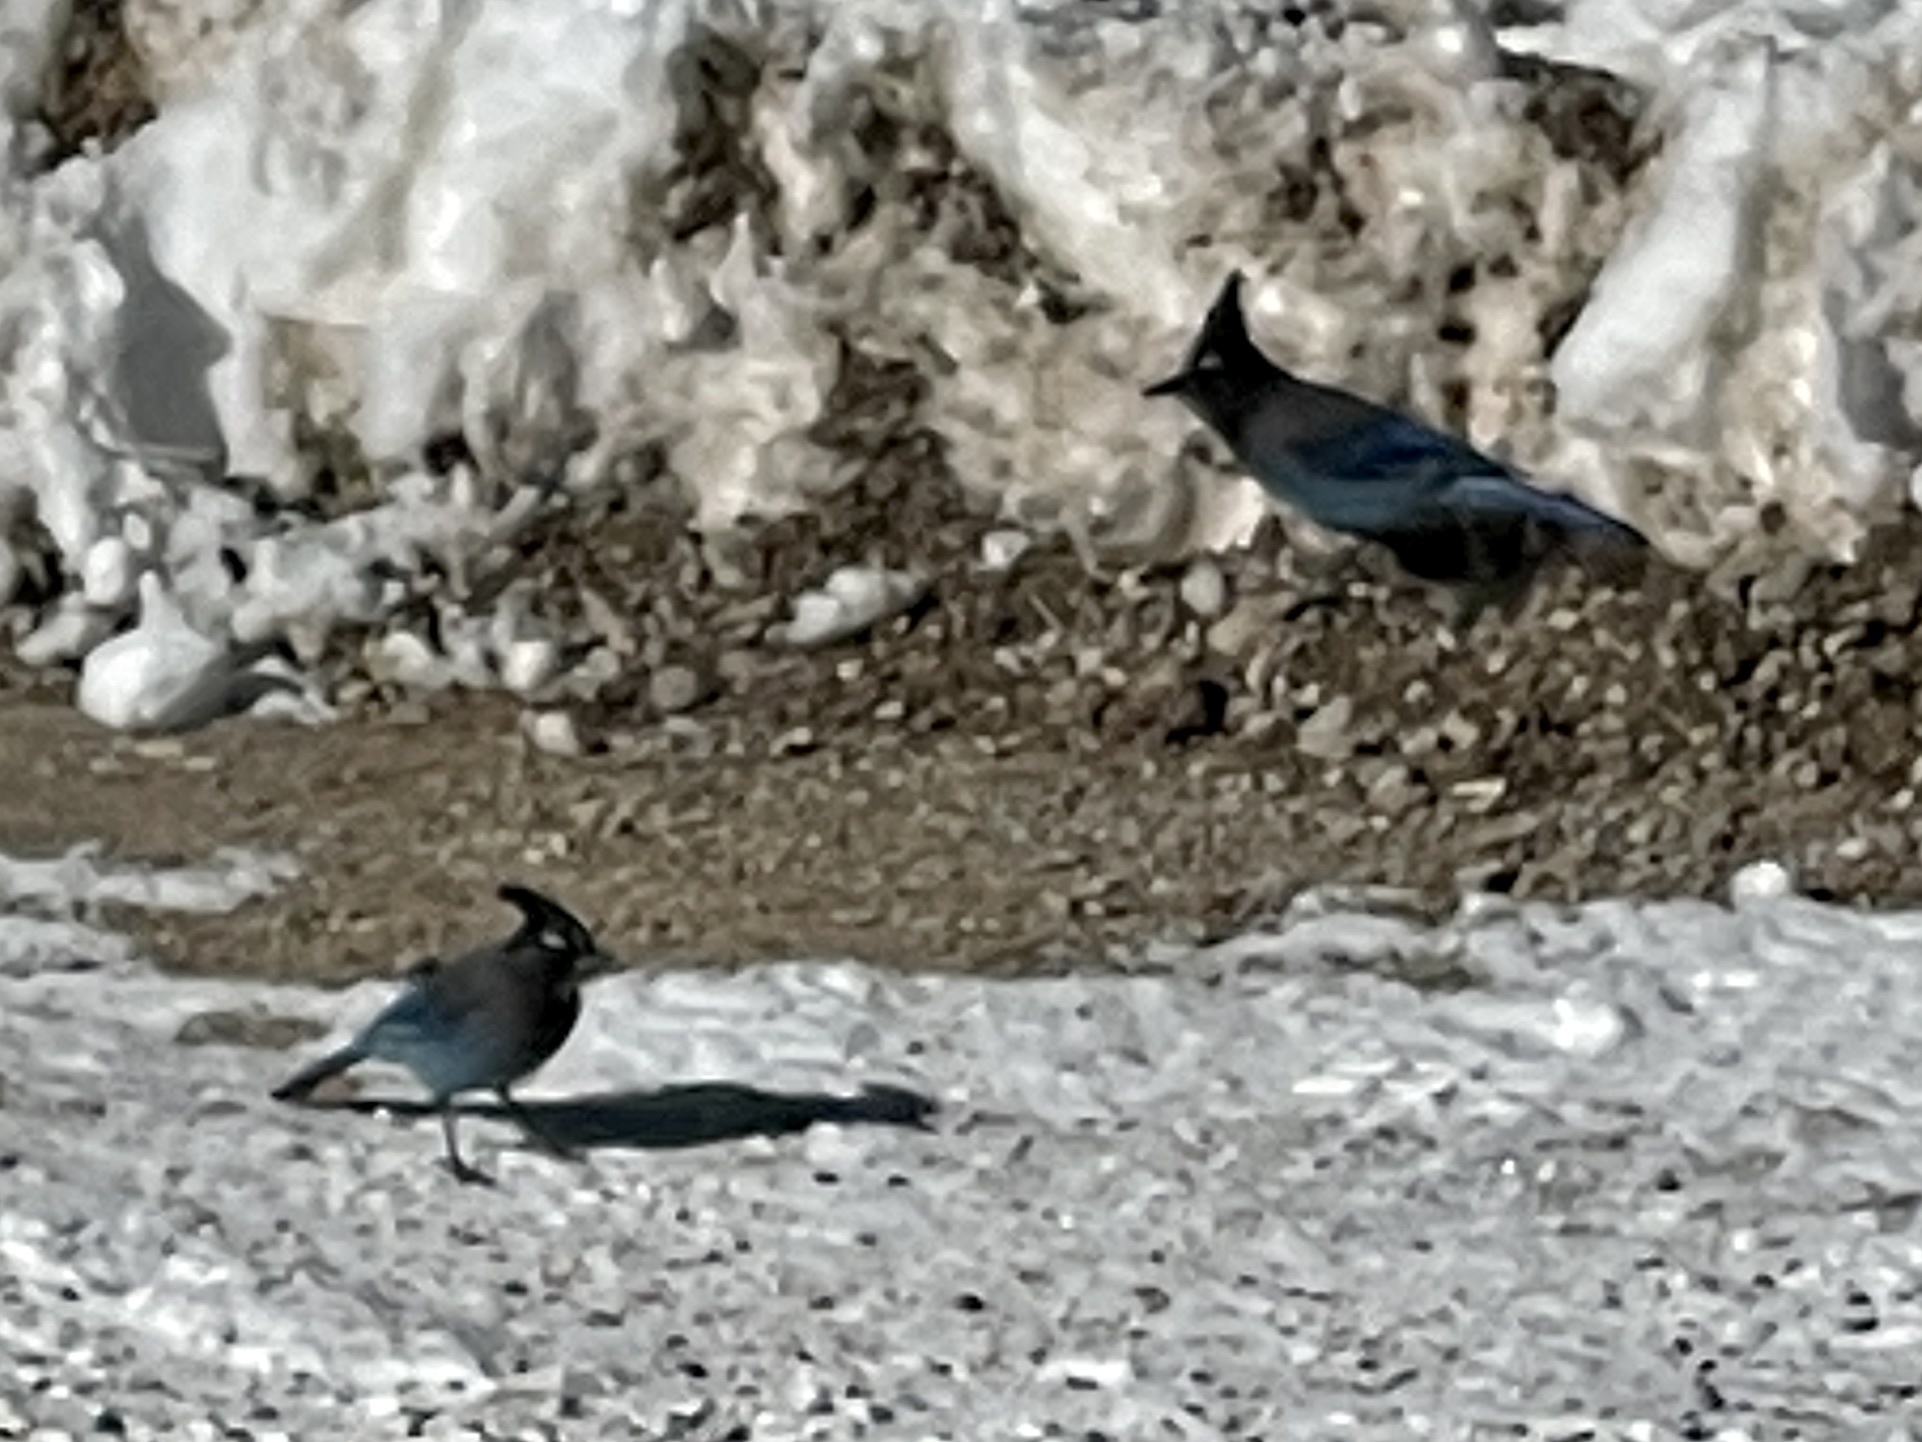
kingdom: Animalia
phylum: Chordata
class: Aves
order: Passeriformes
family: Corvidae
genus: Cyanocitta
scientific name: Cyanocitta stelleri
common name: Steller's jay
